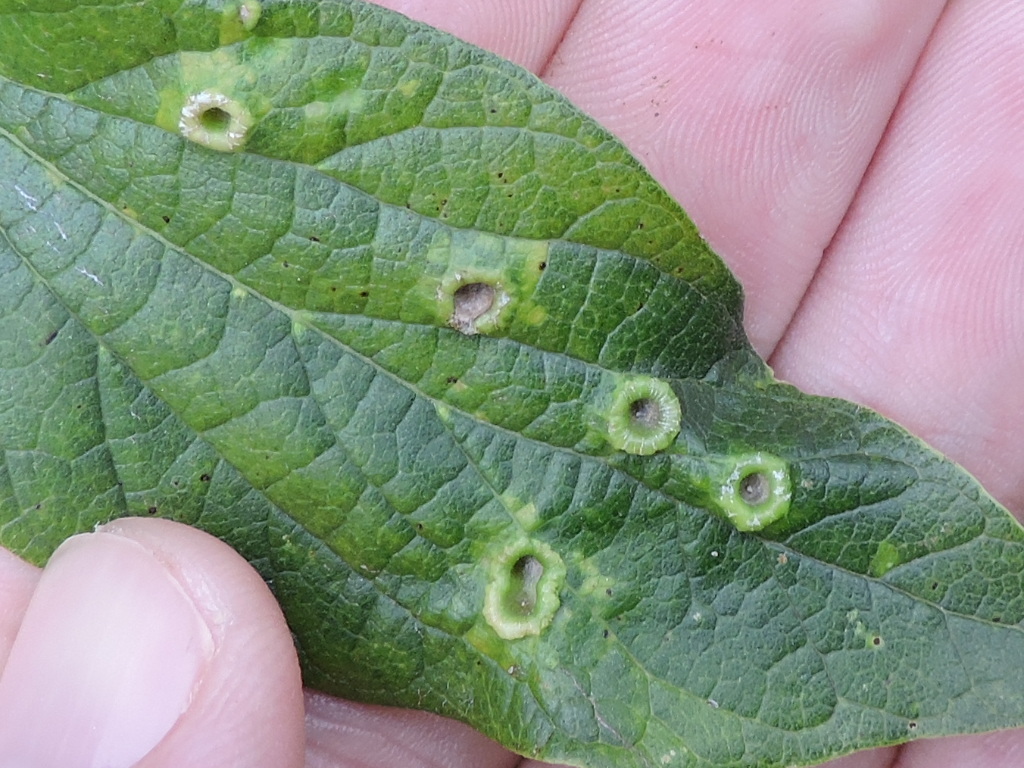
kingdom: Animalia
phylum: Arthropoda
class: Insecta
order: Hemiptera
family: Aphalaridae
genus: Pachypsylla
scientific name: Pachypsylla celtidismamma
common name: Hackberry nipplegall psyllid
